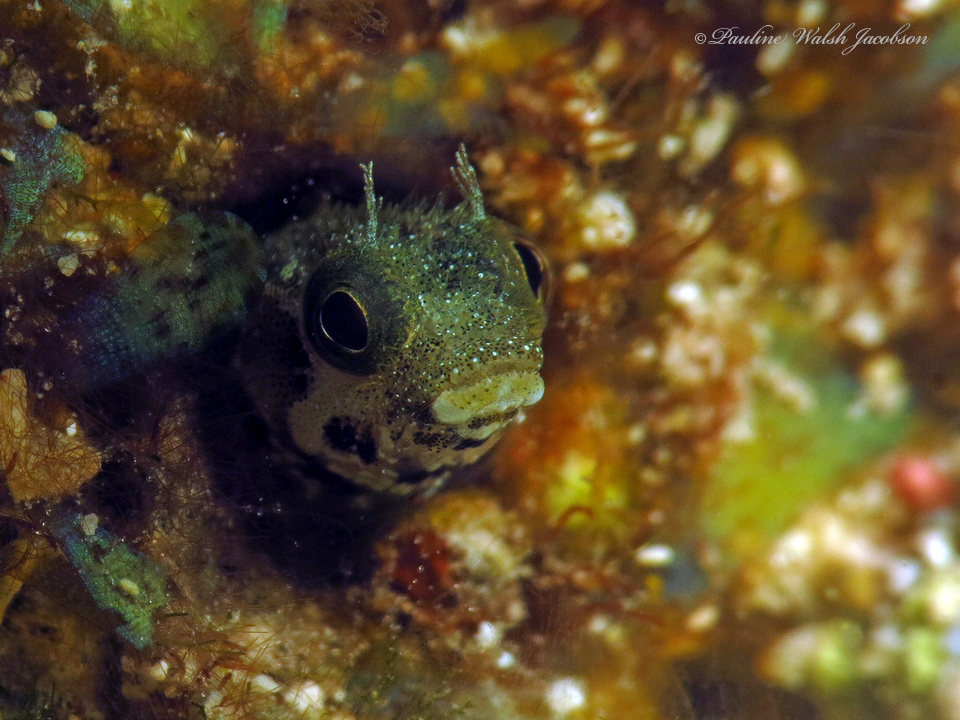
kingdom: Animalia
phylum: Chordata
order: Perciformes
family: Chaenopsidae
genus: Acanthemblemaria
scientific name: Acanthemblemaria spinosa
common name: Spinyhead blenny
